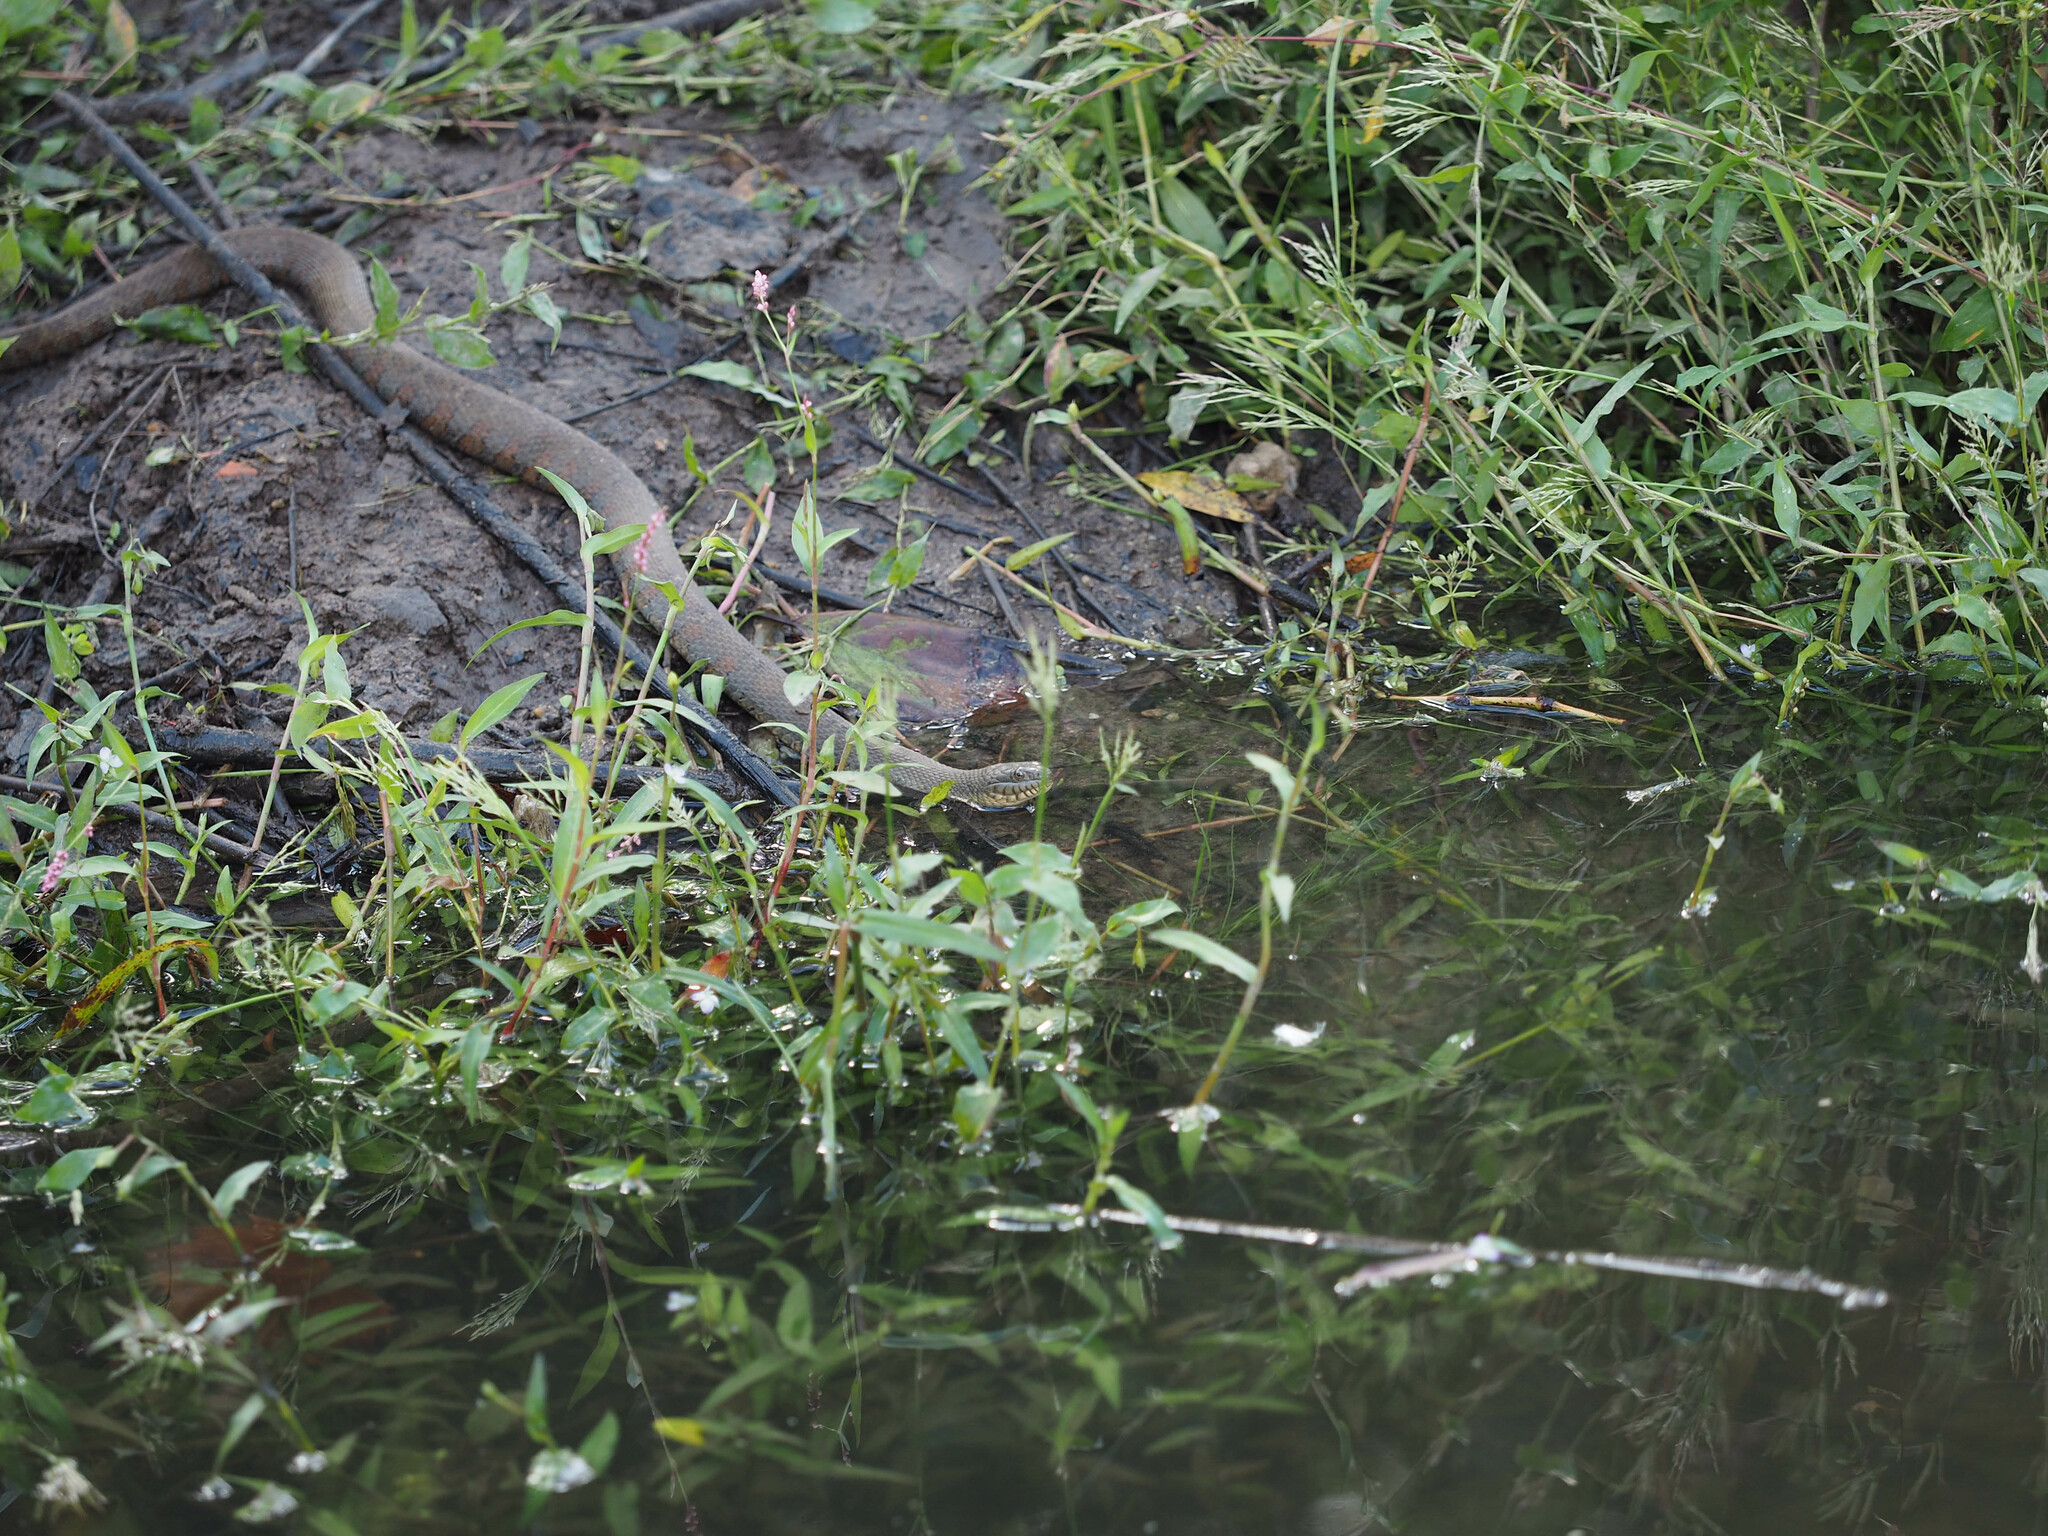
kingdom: Animalia
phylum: Chordata
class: Squamata
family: Colubridae
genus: Nerodia
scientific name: Nerodia sipedon
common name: Northern water snake
